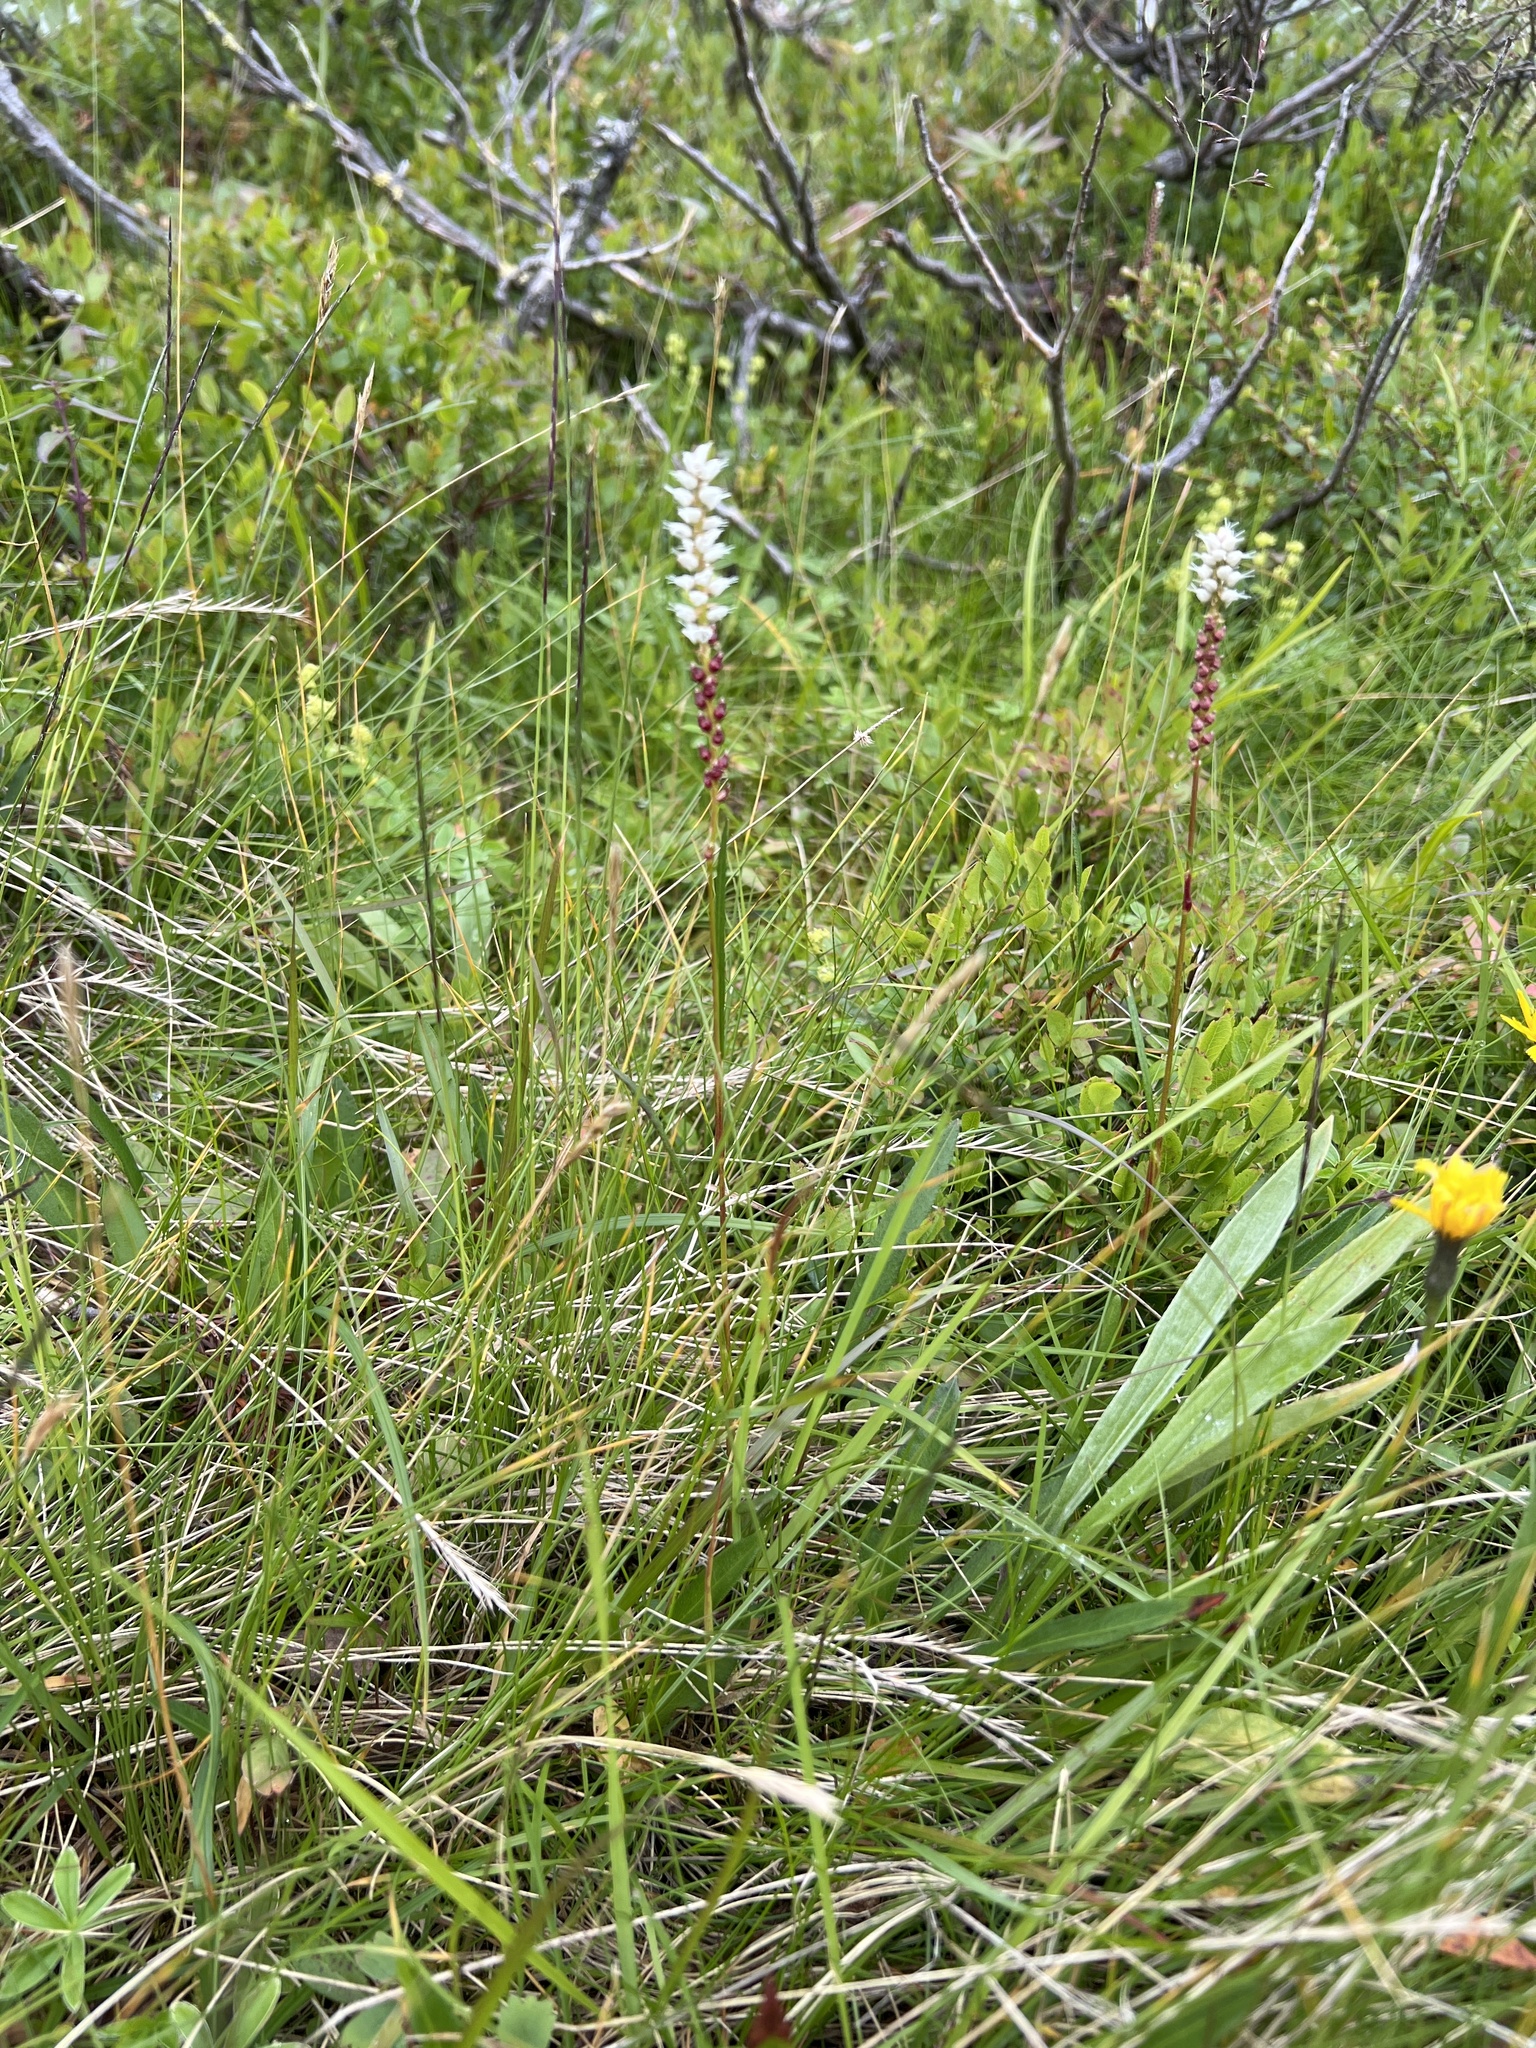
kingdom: Plantae
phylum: Tracheophyta
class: Magnoliopsida
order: Caryophyllales
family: Polygonaceae
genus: Bistorta
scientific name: Bistorta vivipara
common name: Alpine bistort
